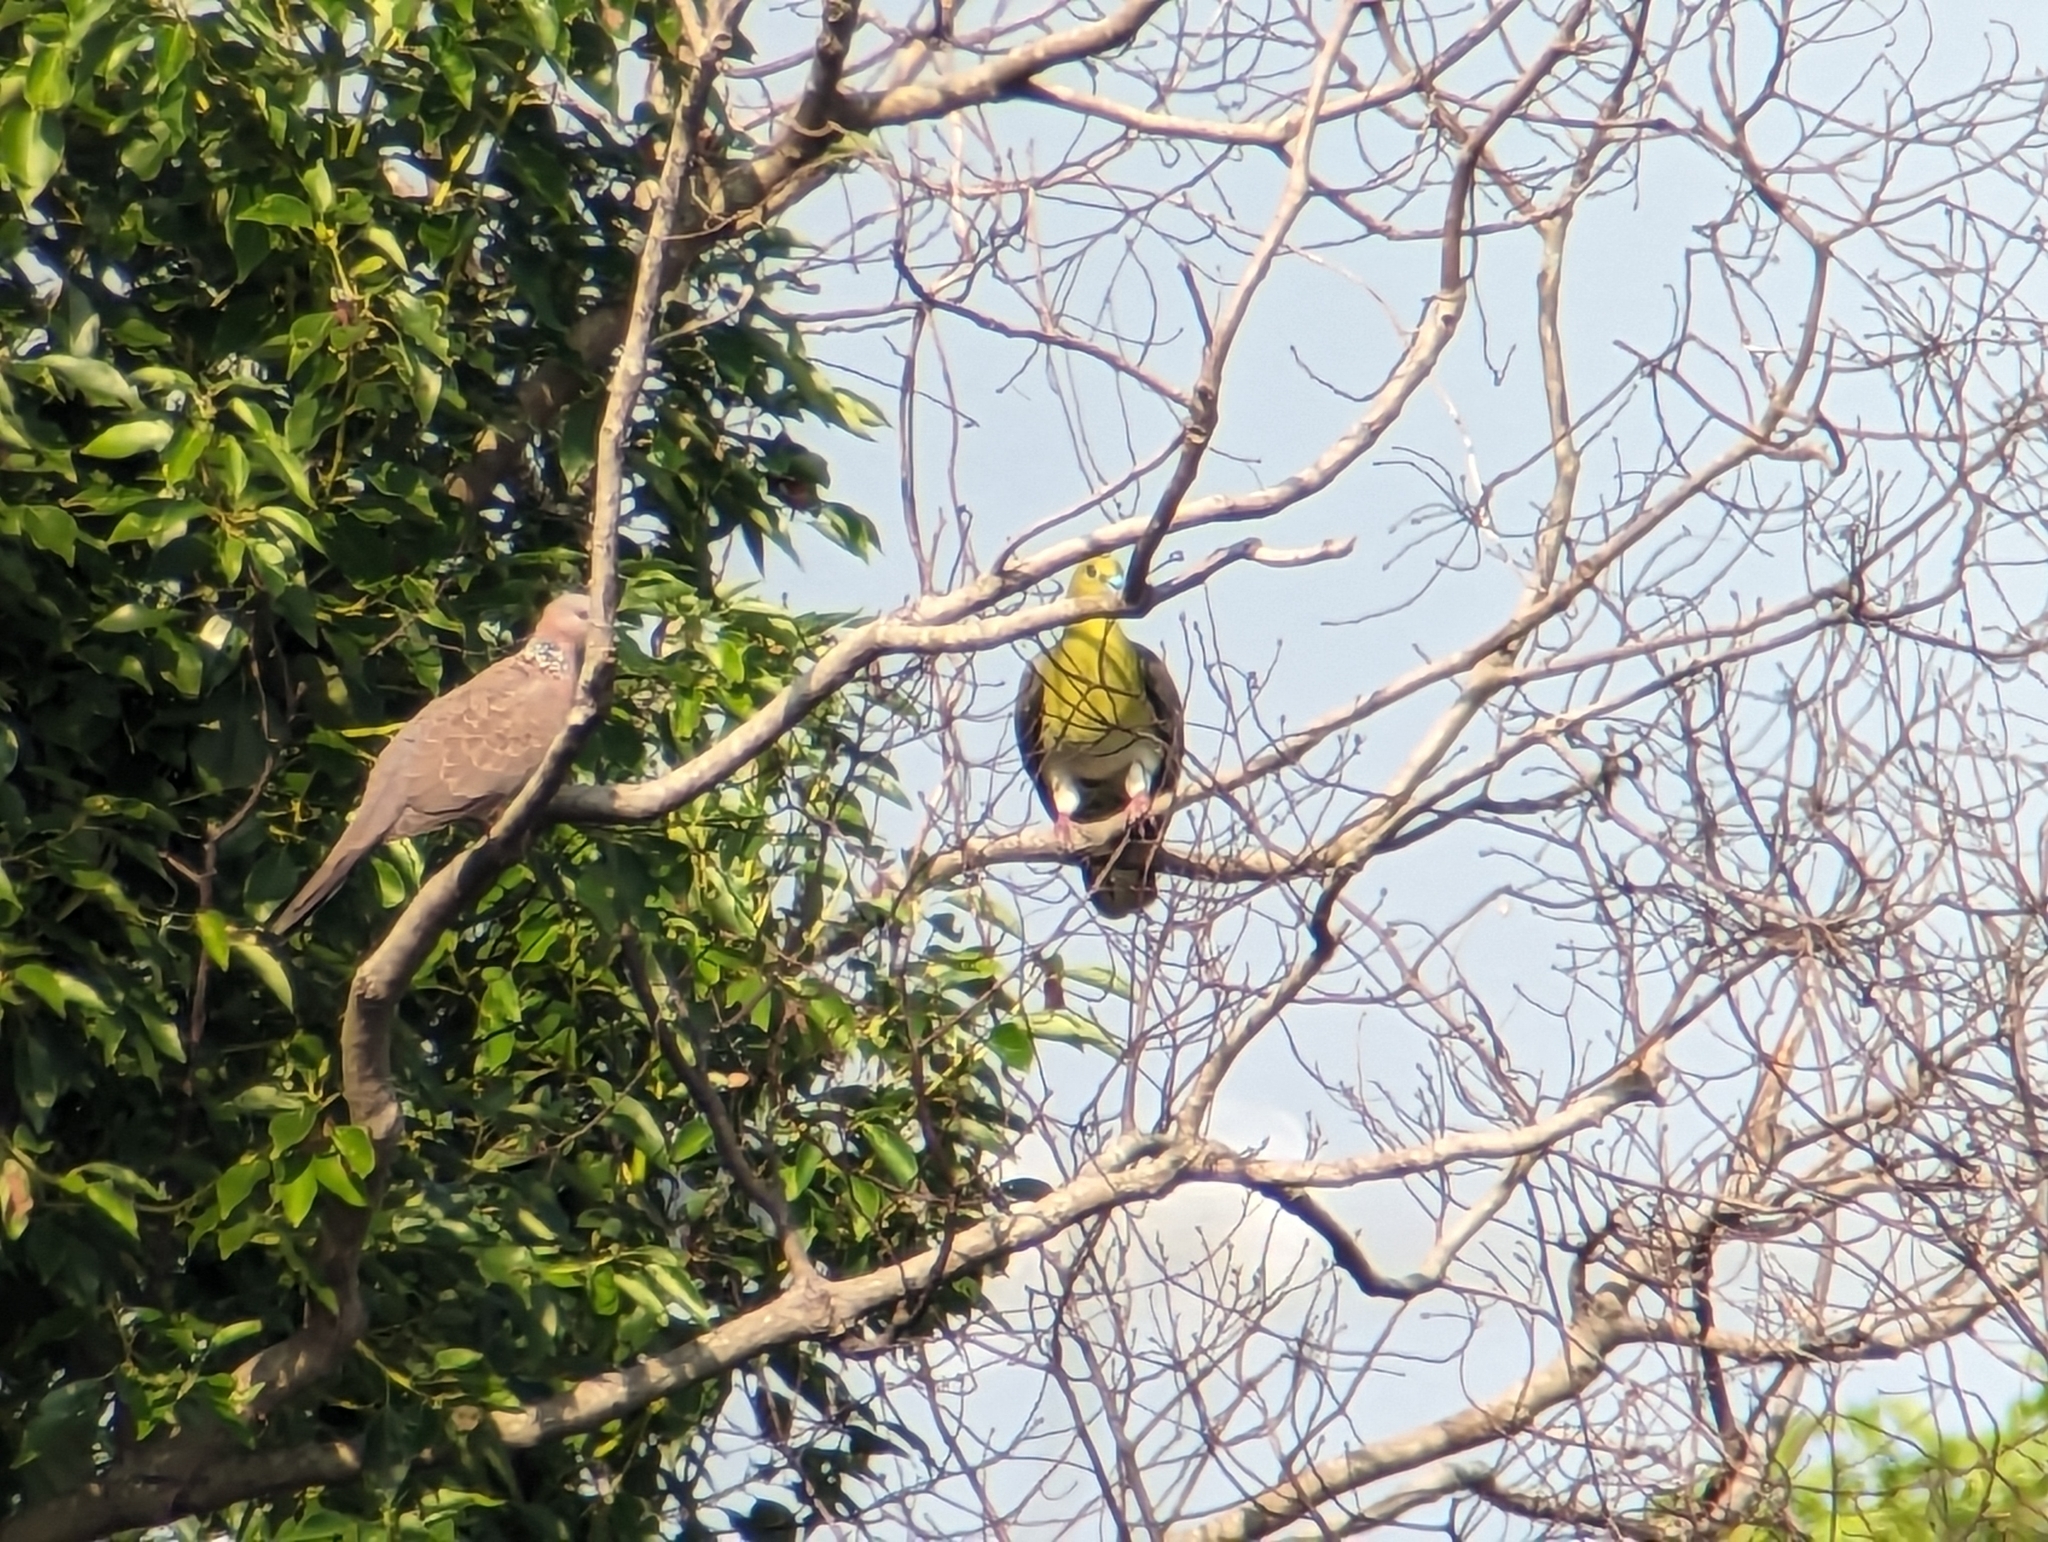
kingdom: Animalia
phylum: Chordata
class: Aves
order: Columbiformes
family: Columbidae
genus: Treron
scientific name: Treron sieboldii
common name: White-bellied green pigeon
